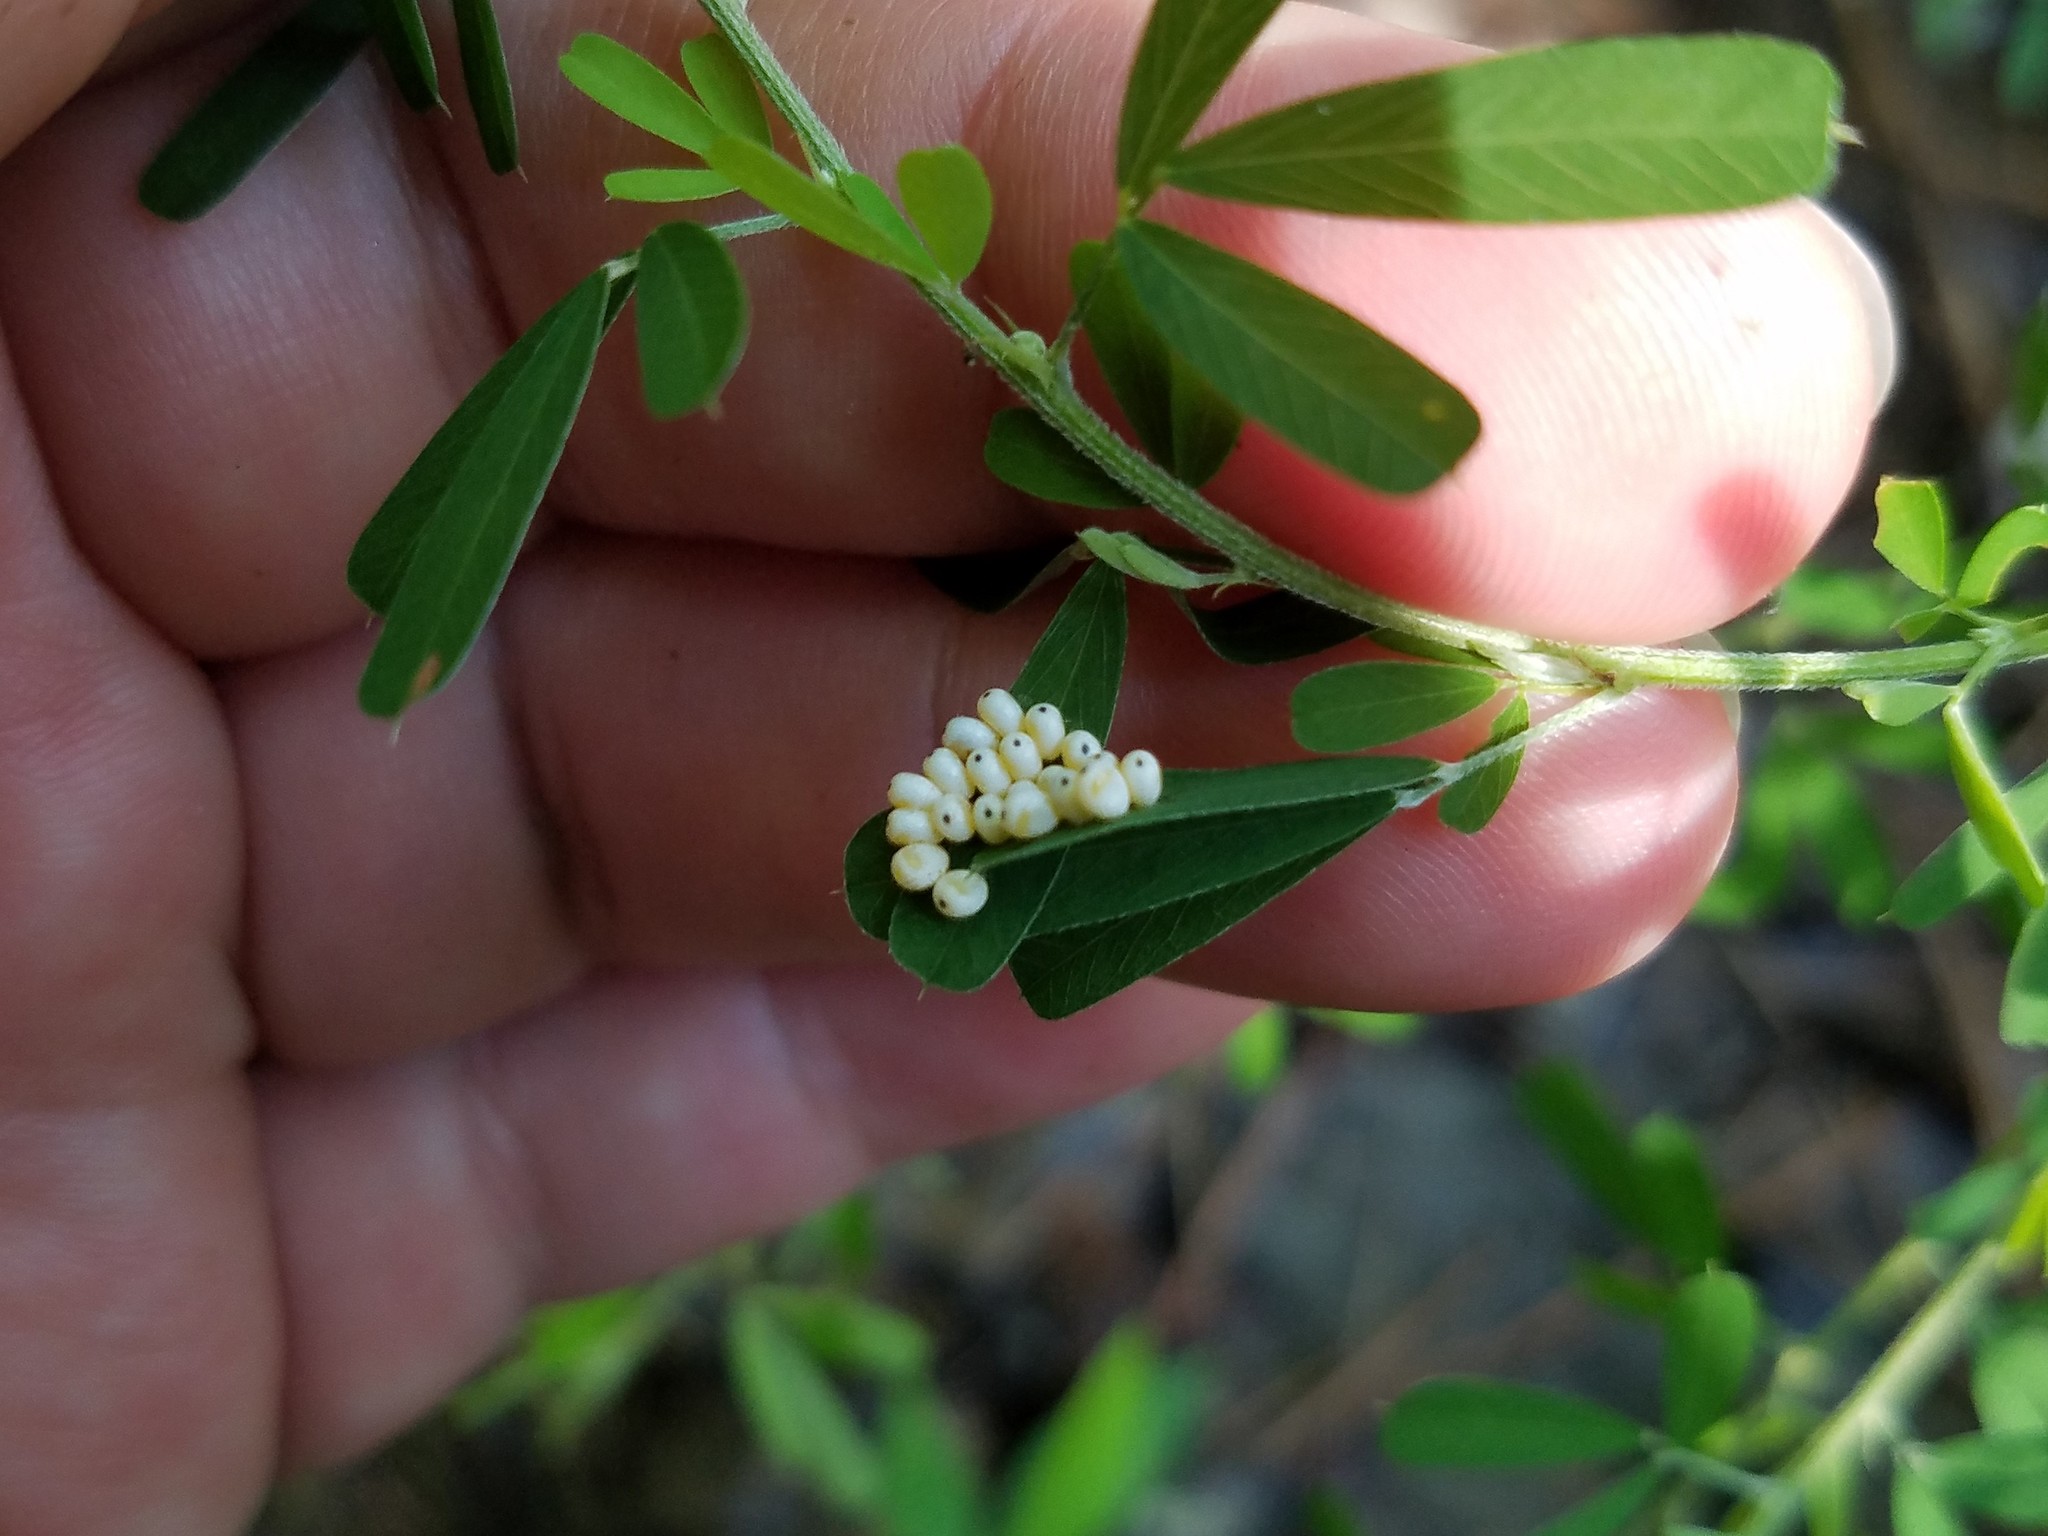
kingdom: Animalia
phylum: Arthropoda
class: Insecta
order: Lepidoptera
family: Saturniidae
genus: Automeris
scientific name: Automeris io
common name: Io moth
